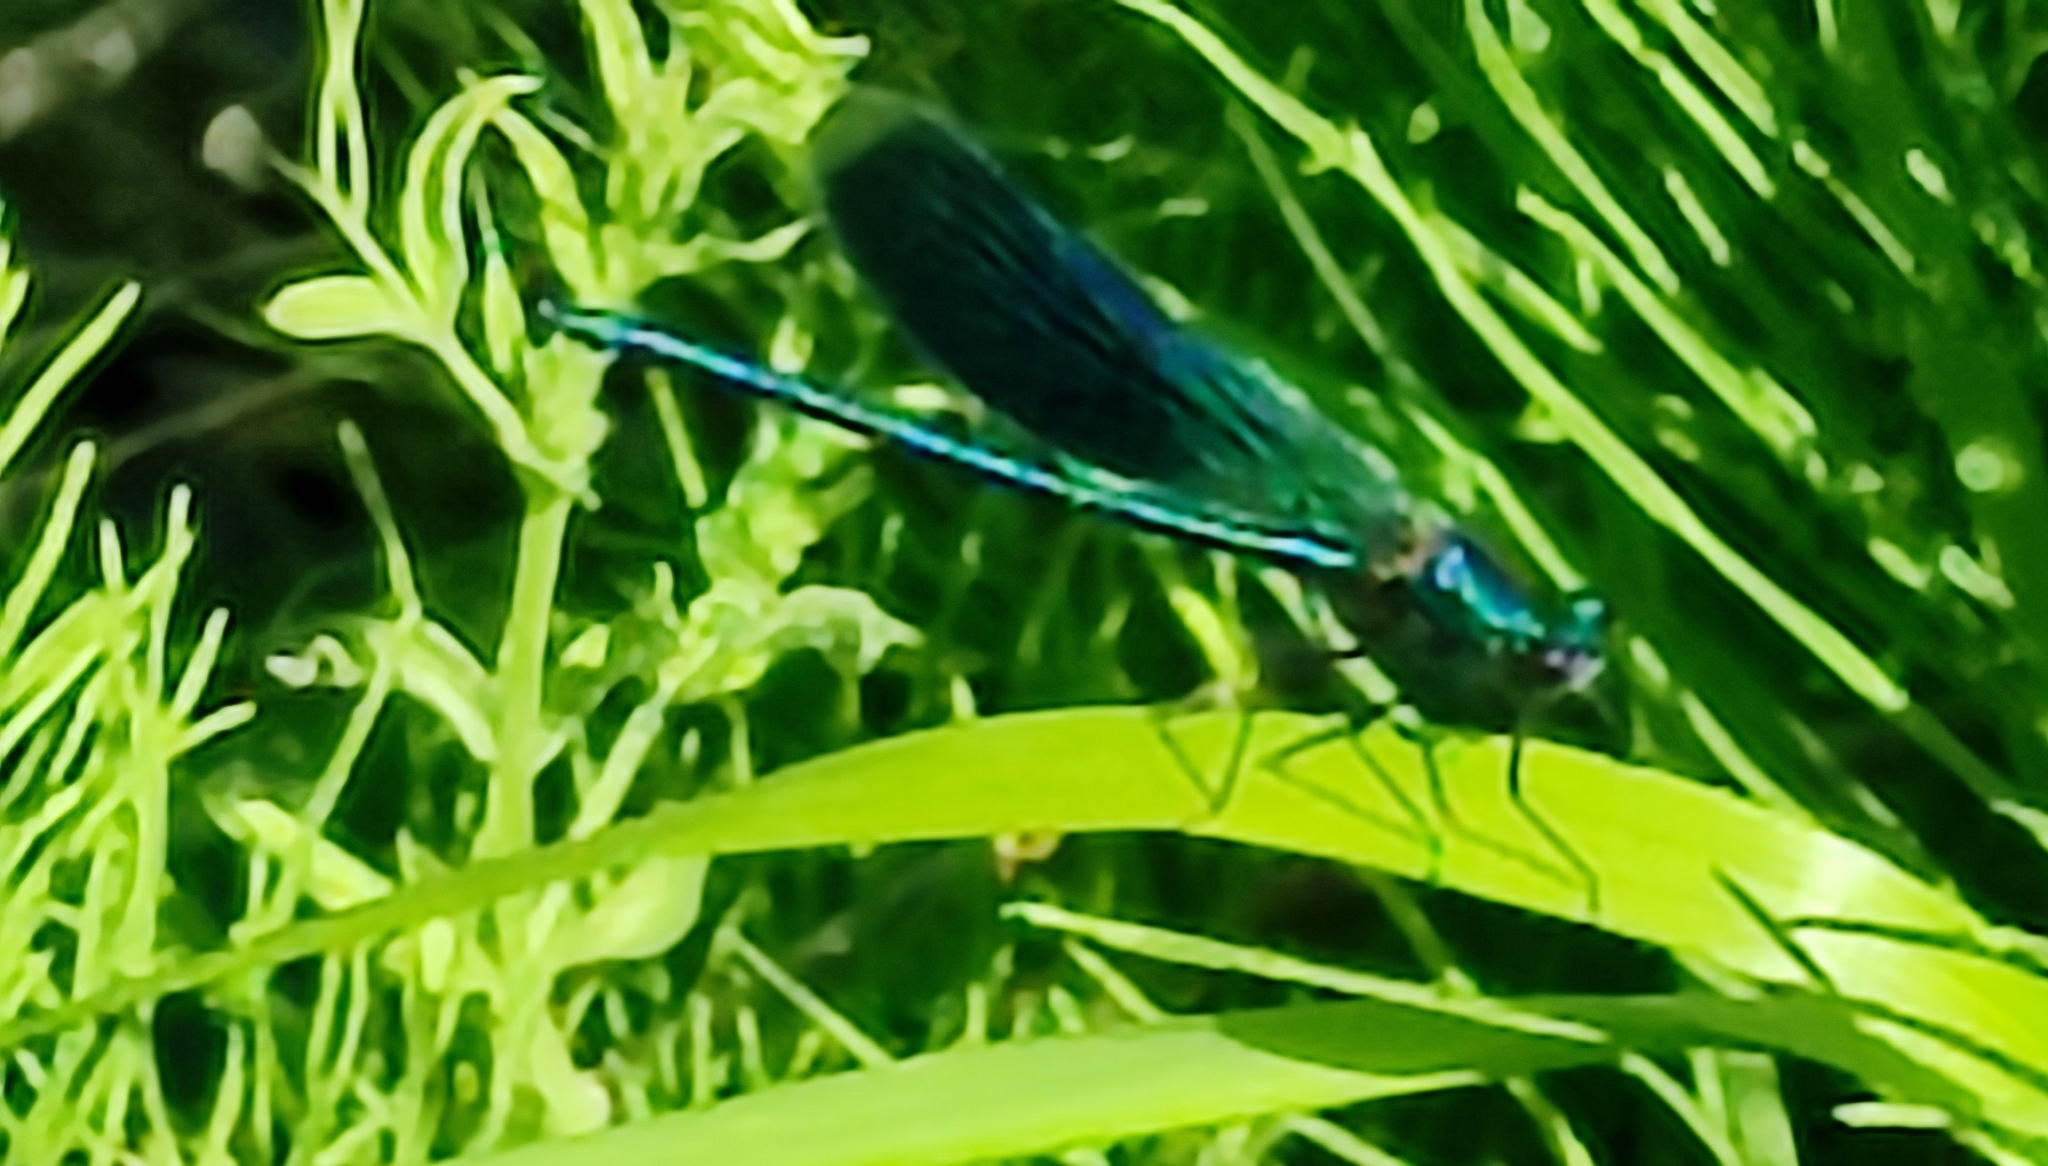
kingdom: Animalia
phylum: Arthropoda
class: Insecta
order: Odonata
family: Calopterygidae
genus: Calopteryx
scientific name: Calopteryx splendens
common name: Banded demoiselle
